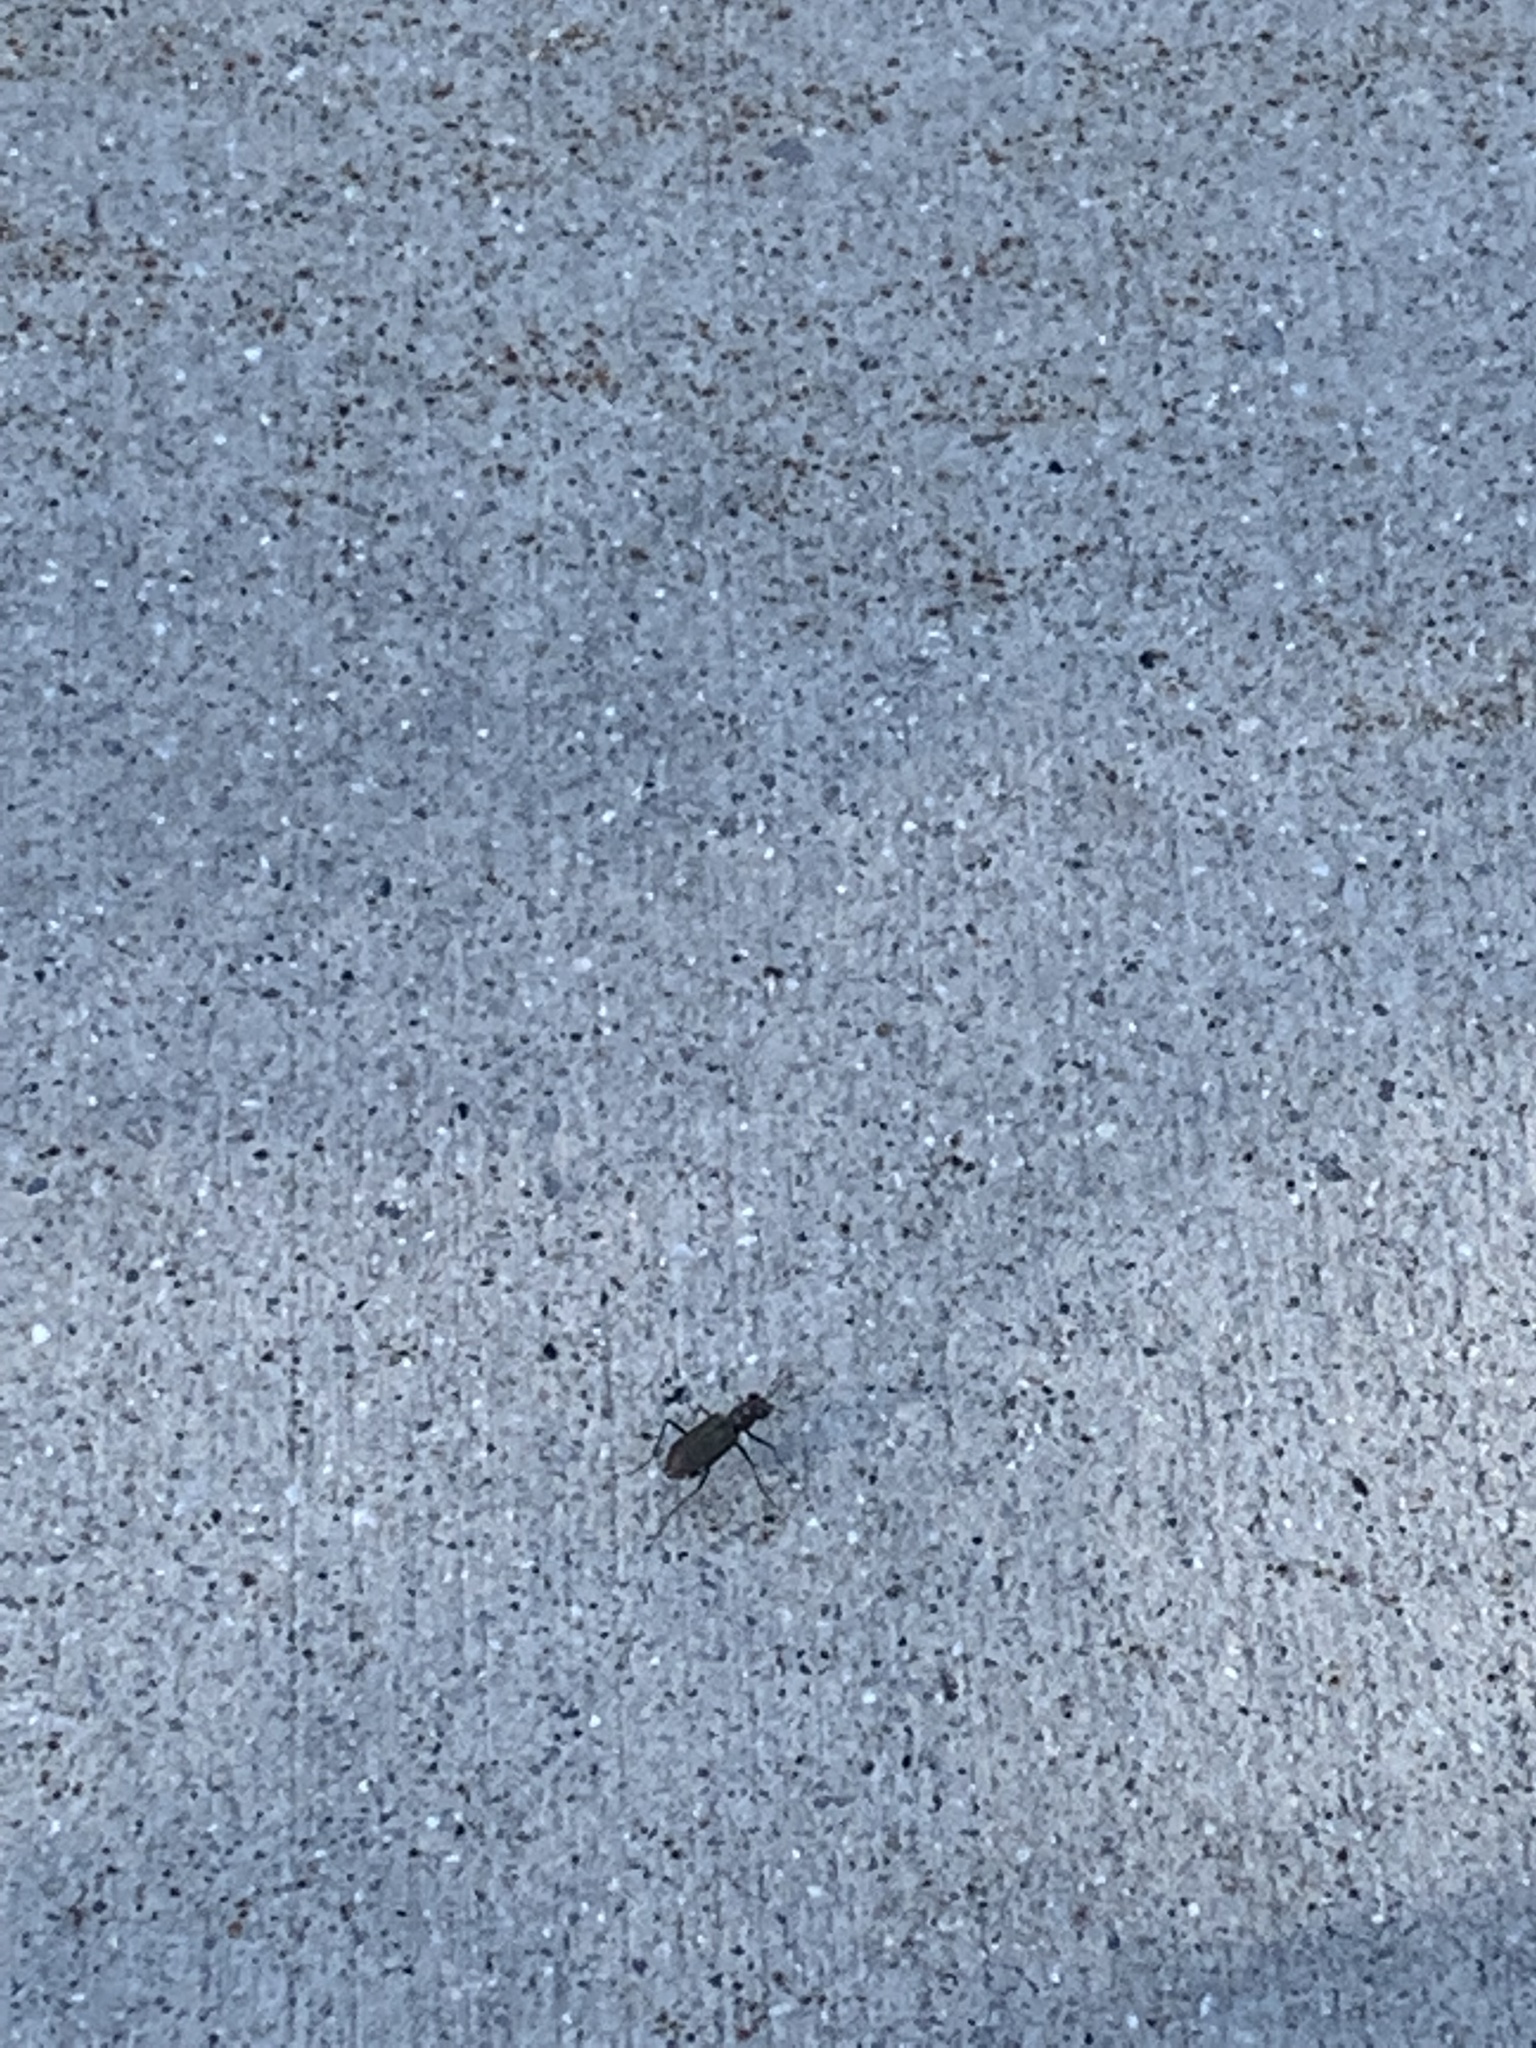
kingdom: Animalia
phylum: Arthropoda
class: Insecta
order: Coleoptera
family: Carabidae
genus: Cicindela
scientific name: Cicindela punctulata
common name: Punctured tiger beetle
